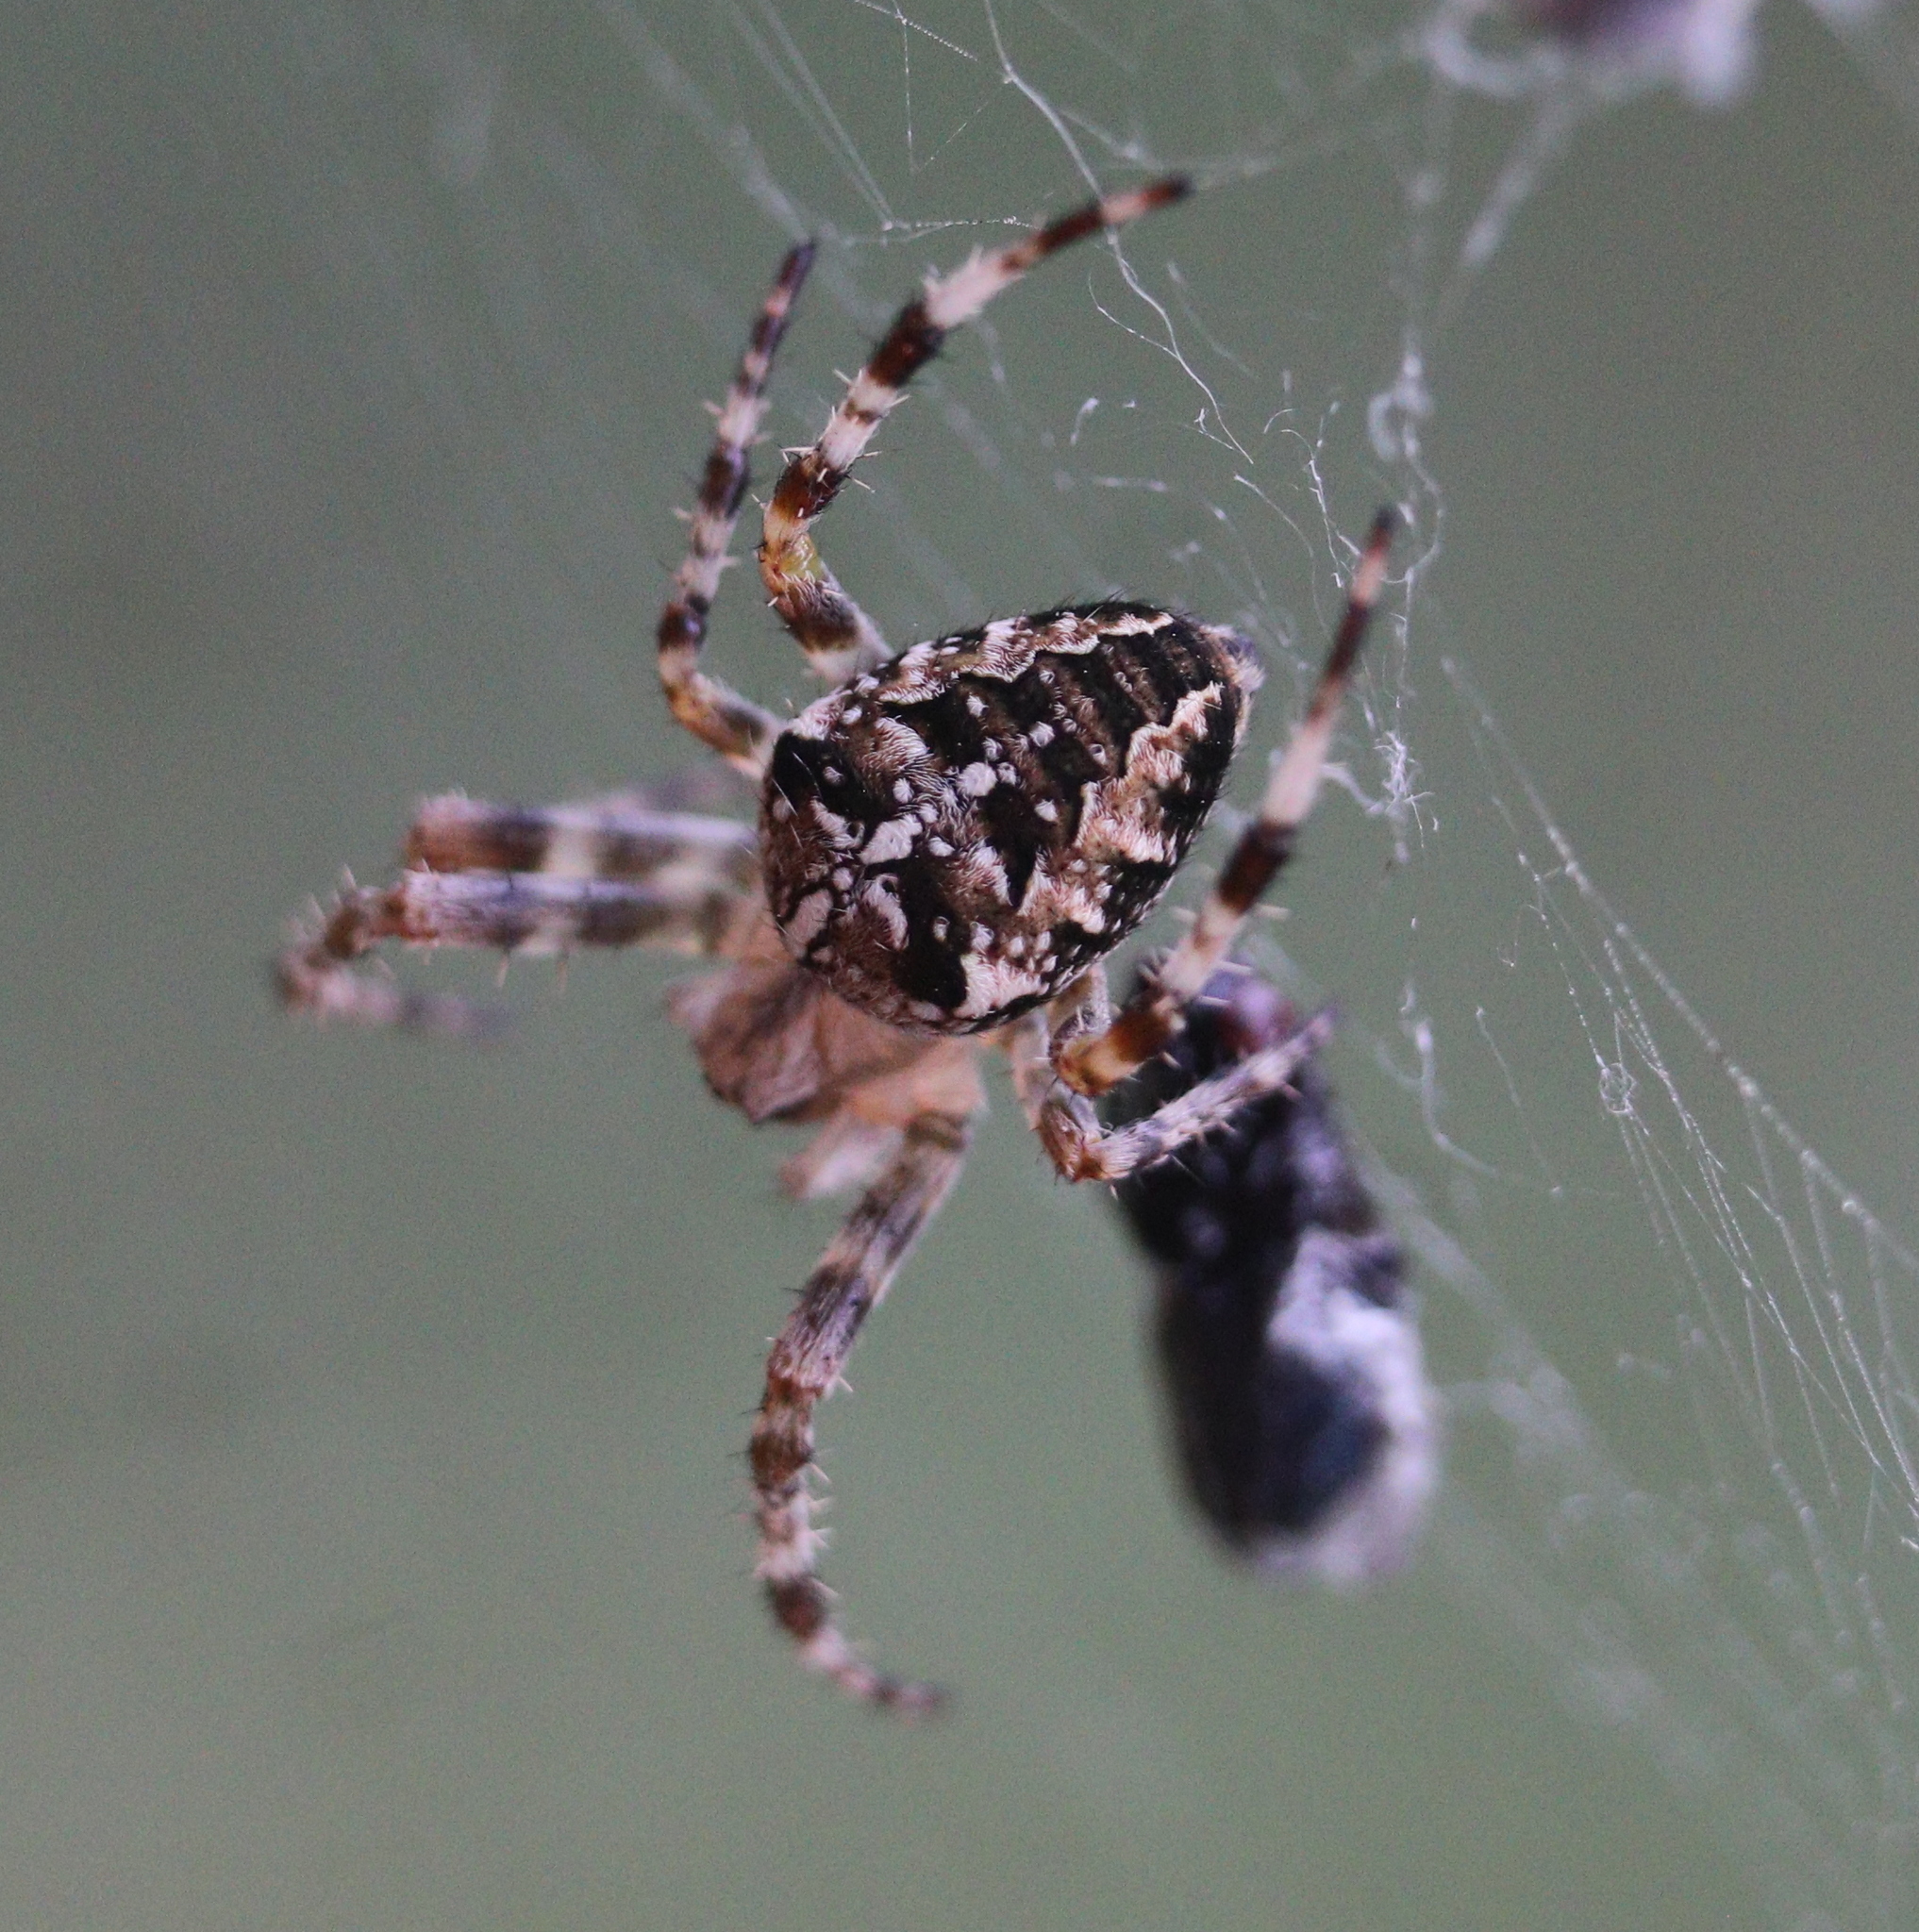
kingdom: Animalia
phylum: Arthropoda
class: Arachnida
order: Araneae
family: Araneidae
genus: Araneus
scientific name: Araneus diadematus
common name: Cross orbweaver
